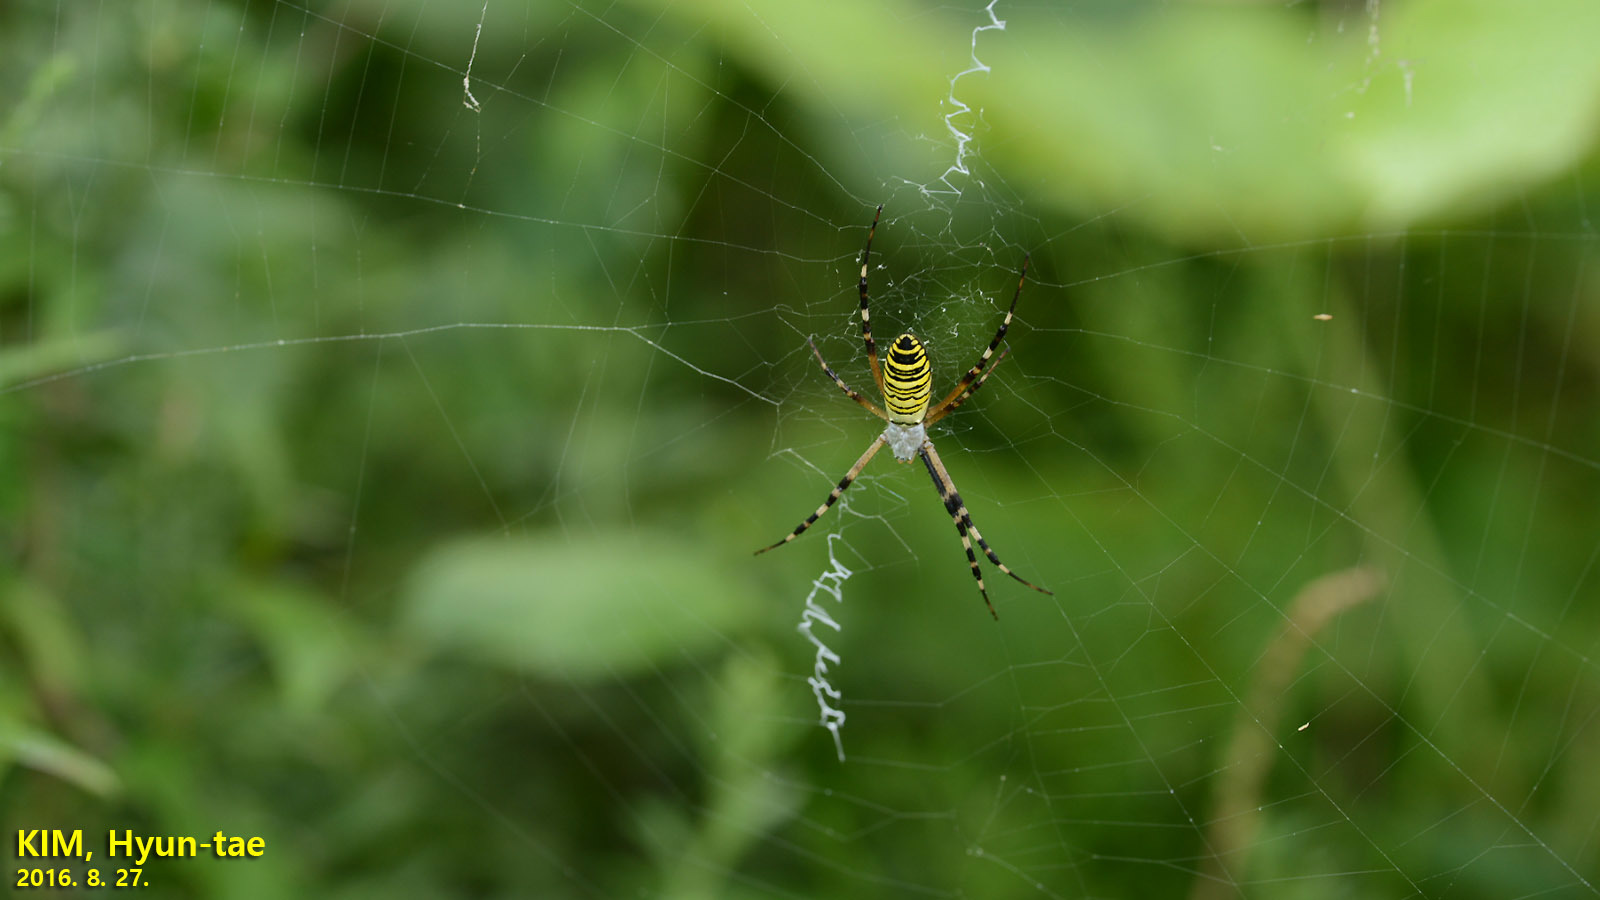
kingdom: Animalia
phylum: Arthropoda
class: Arachnida
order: Araneae
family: Araneidae
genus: Argiope
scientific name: Argiope bruennichi
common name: Wasp spider
